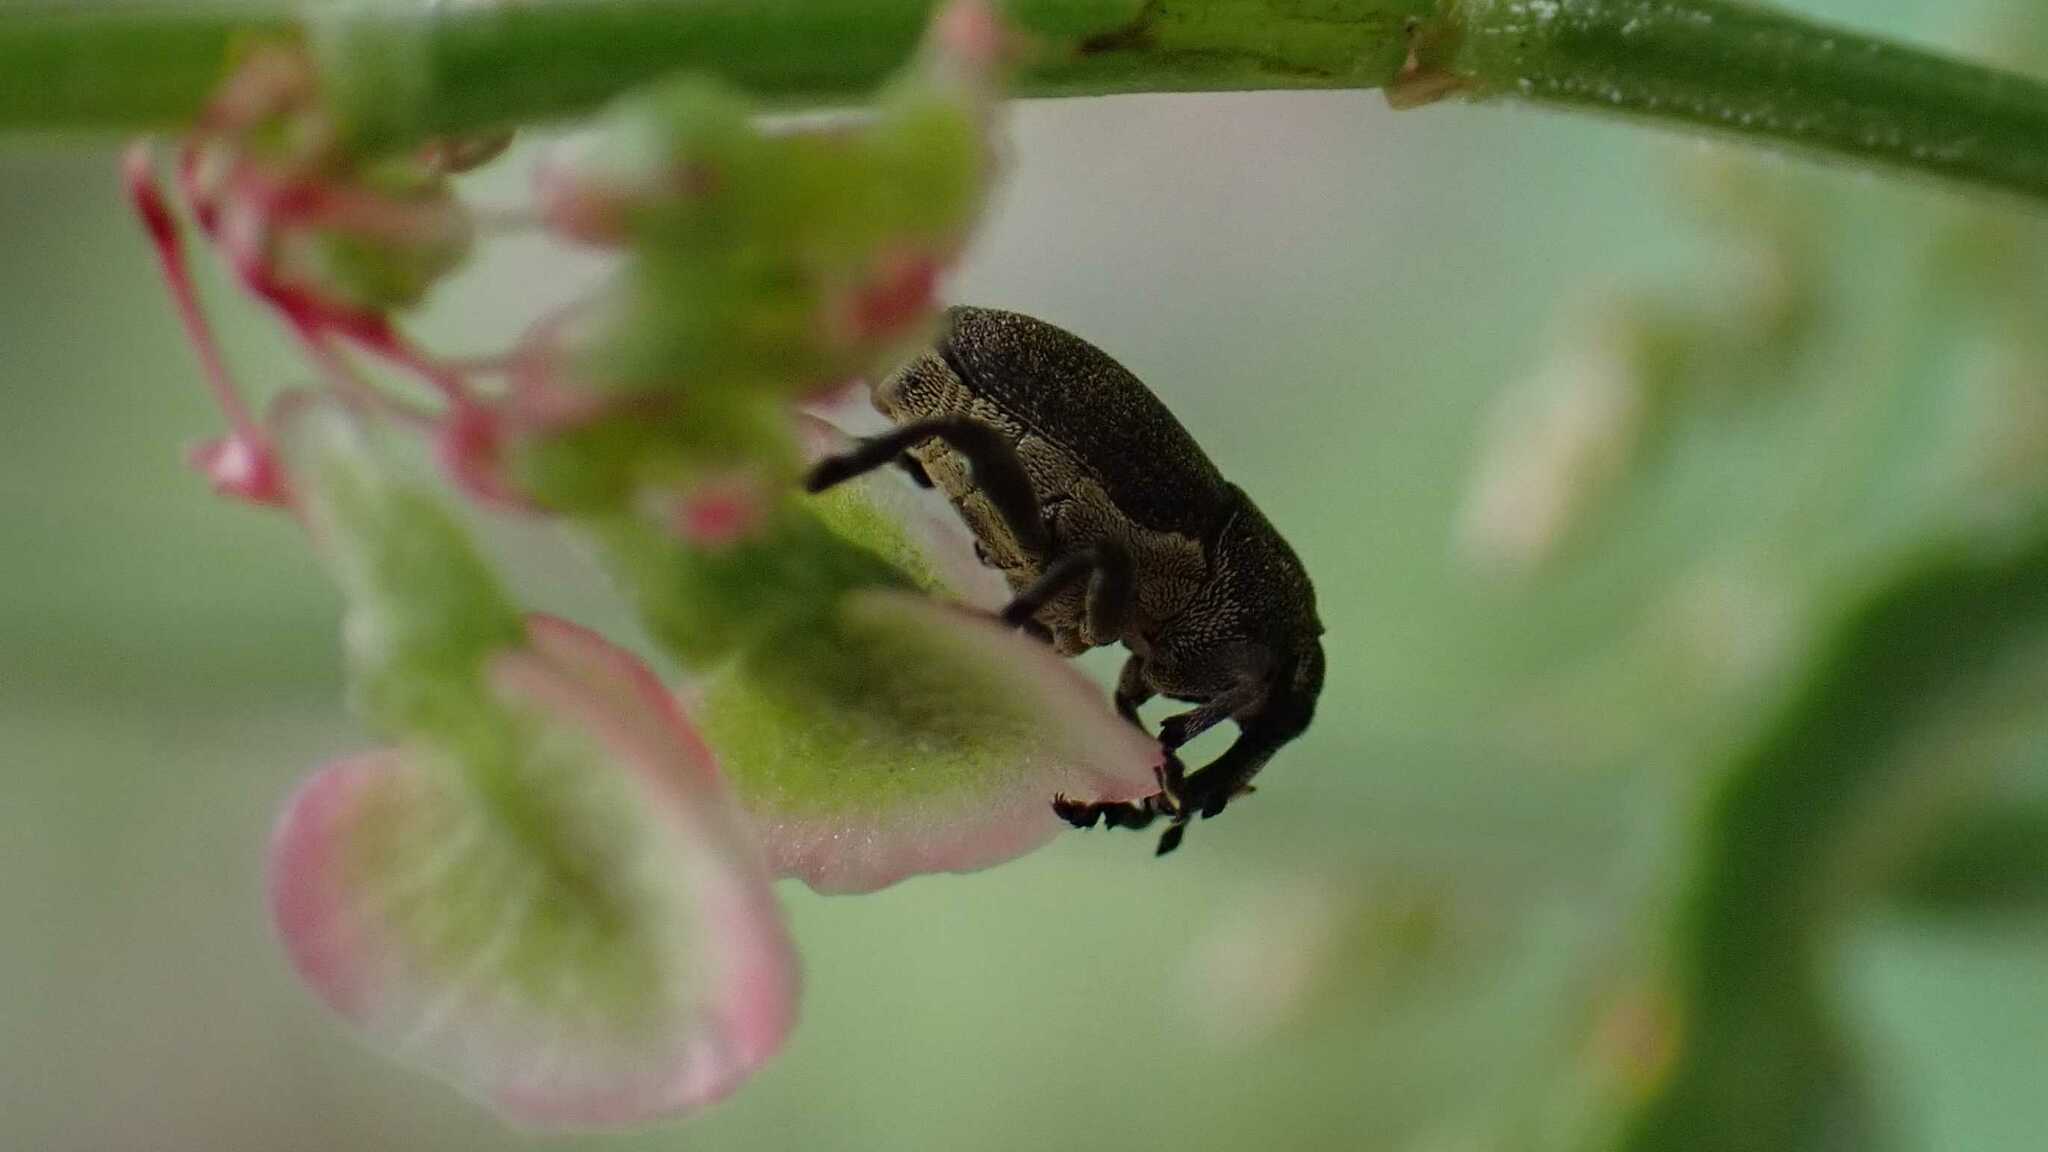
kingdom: Animalia
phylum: Arthropoda
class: Insecta
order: Coleoptera
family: Curculionidae
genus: Marmaropus
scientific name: Marmaropus besseri
